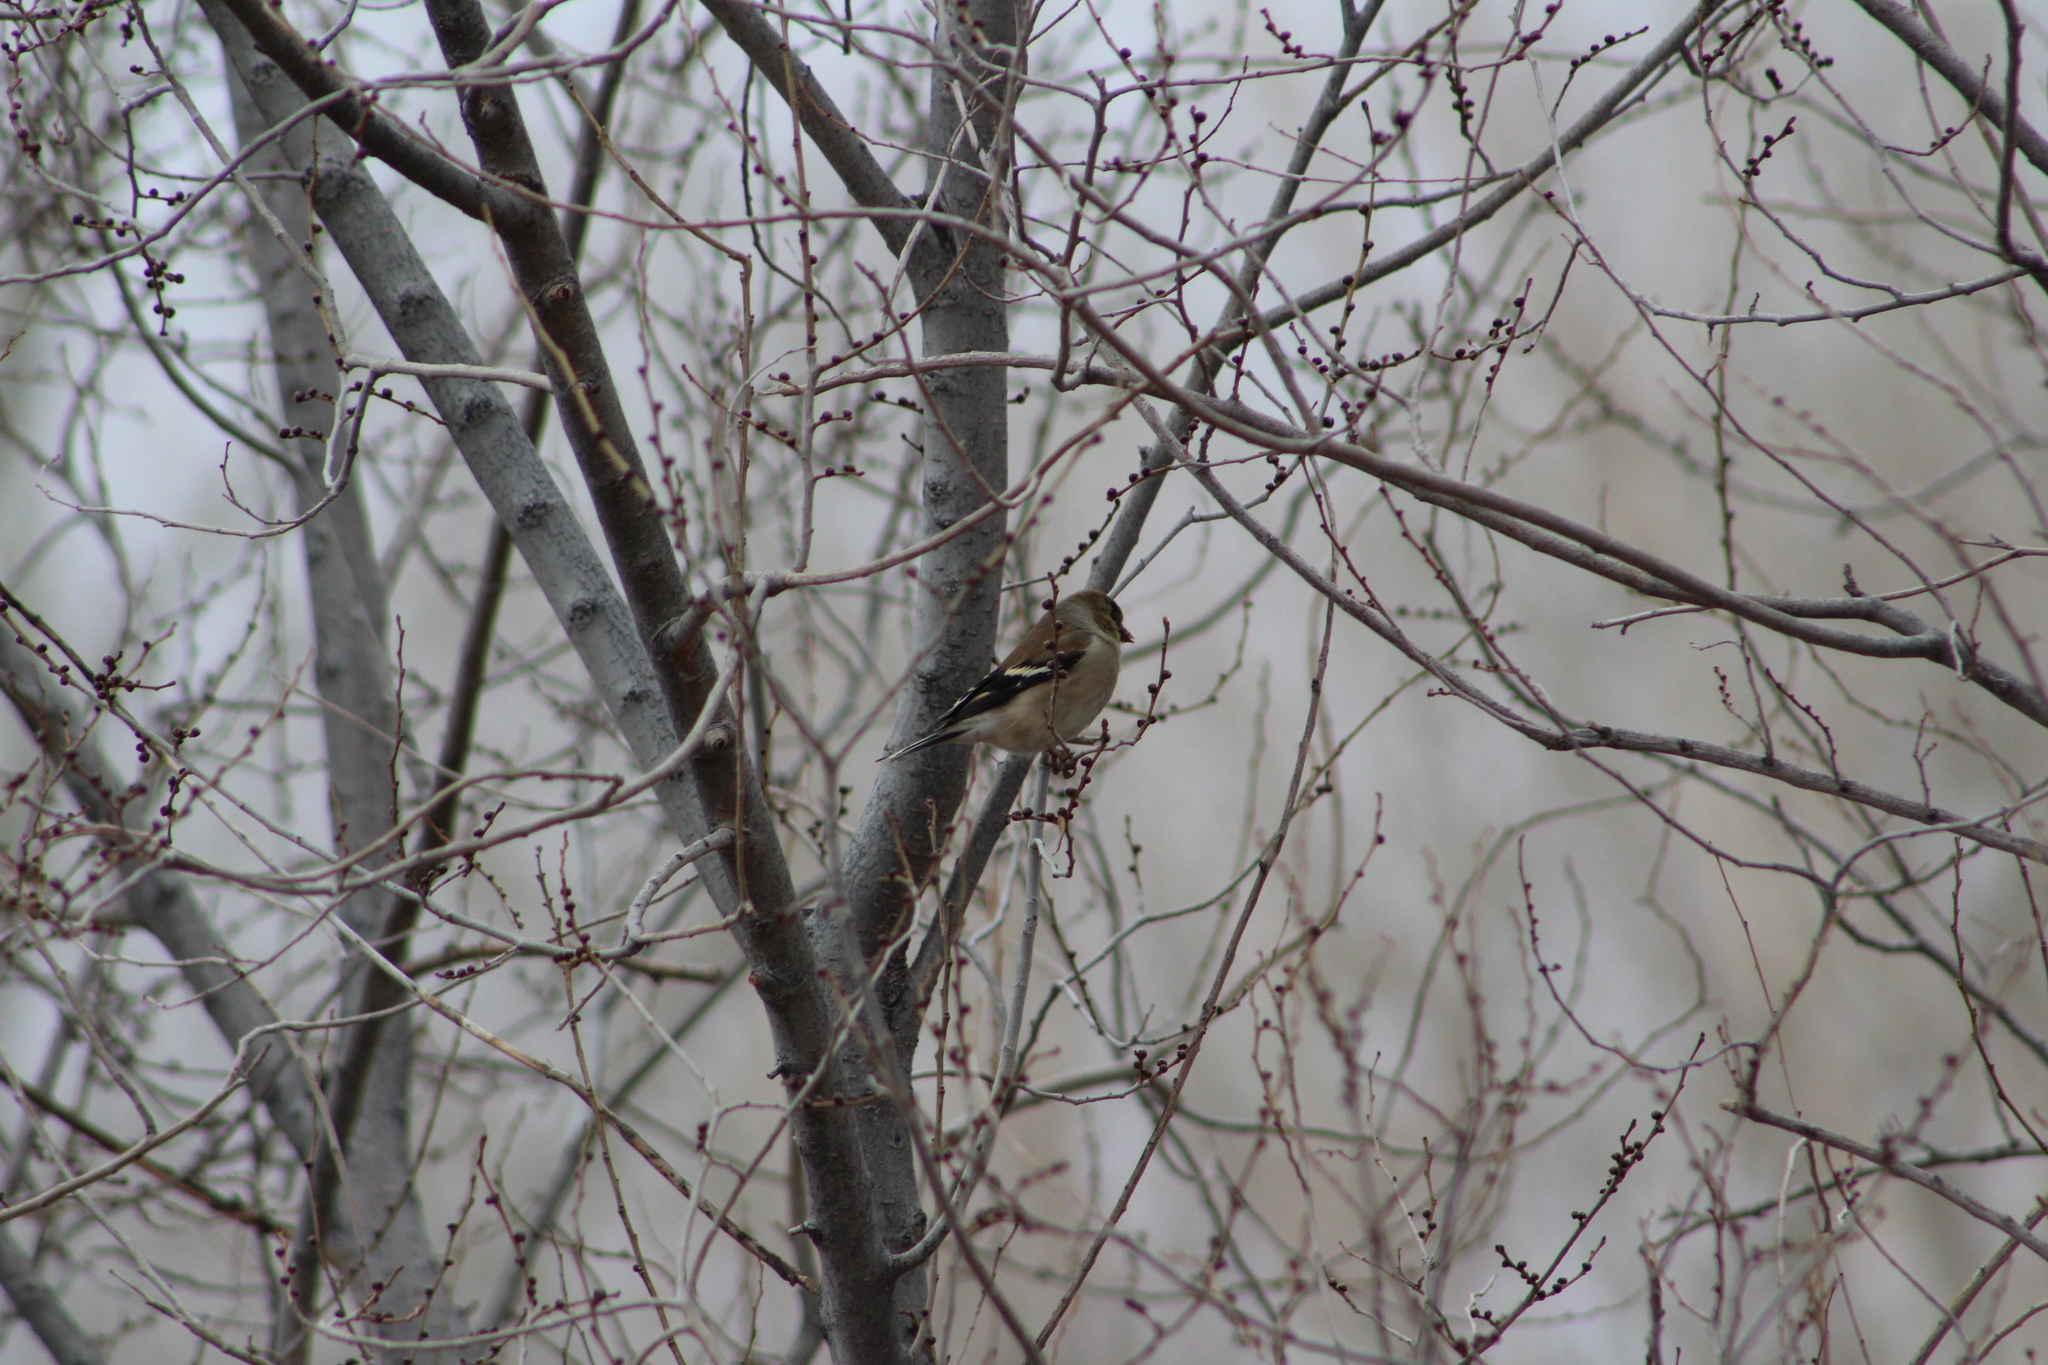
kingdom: Animalia
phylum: Chordata
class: Aves
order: Passeriformes
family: Fringillidae
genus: Spinus
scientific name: Spinus tristis
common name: American goldfinch
